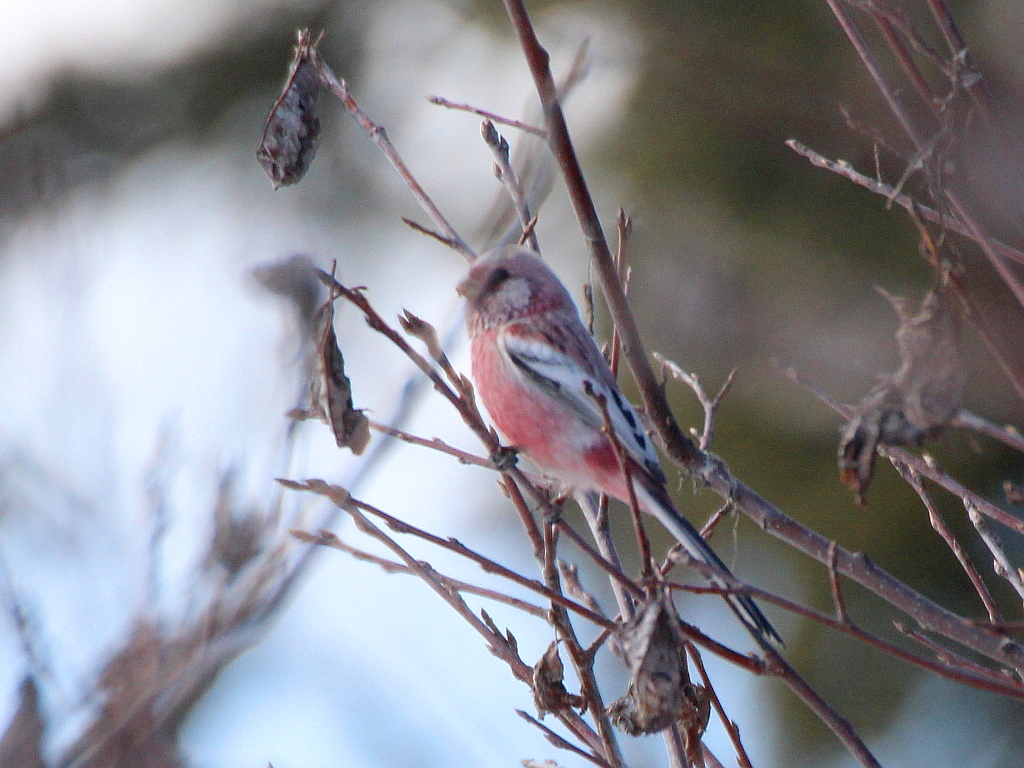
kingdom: Animalia
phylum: Chordata
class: Aves
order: Passeriformes
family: Fringillidae
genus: Carpodacus
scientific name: Carpodacus sibiricus
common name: Long-tailed rosefinch
